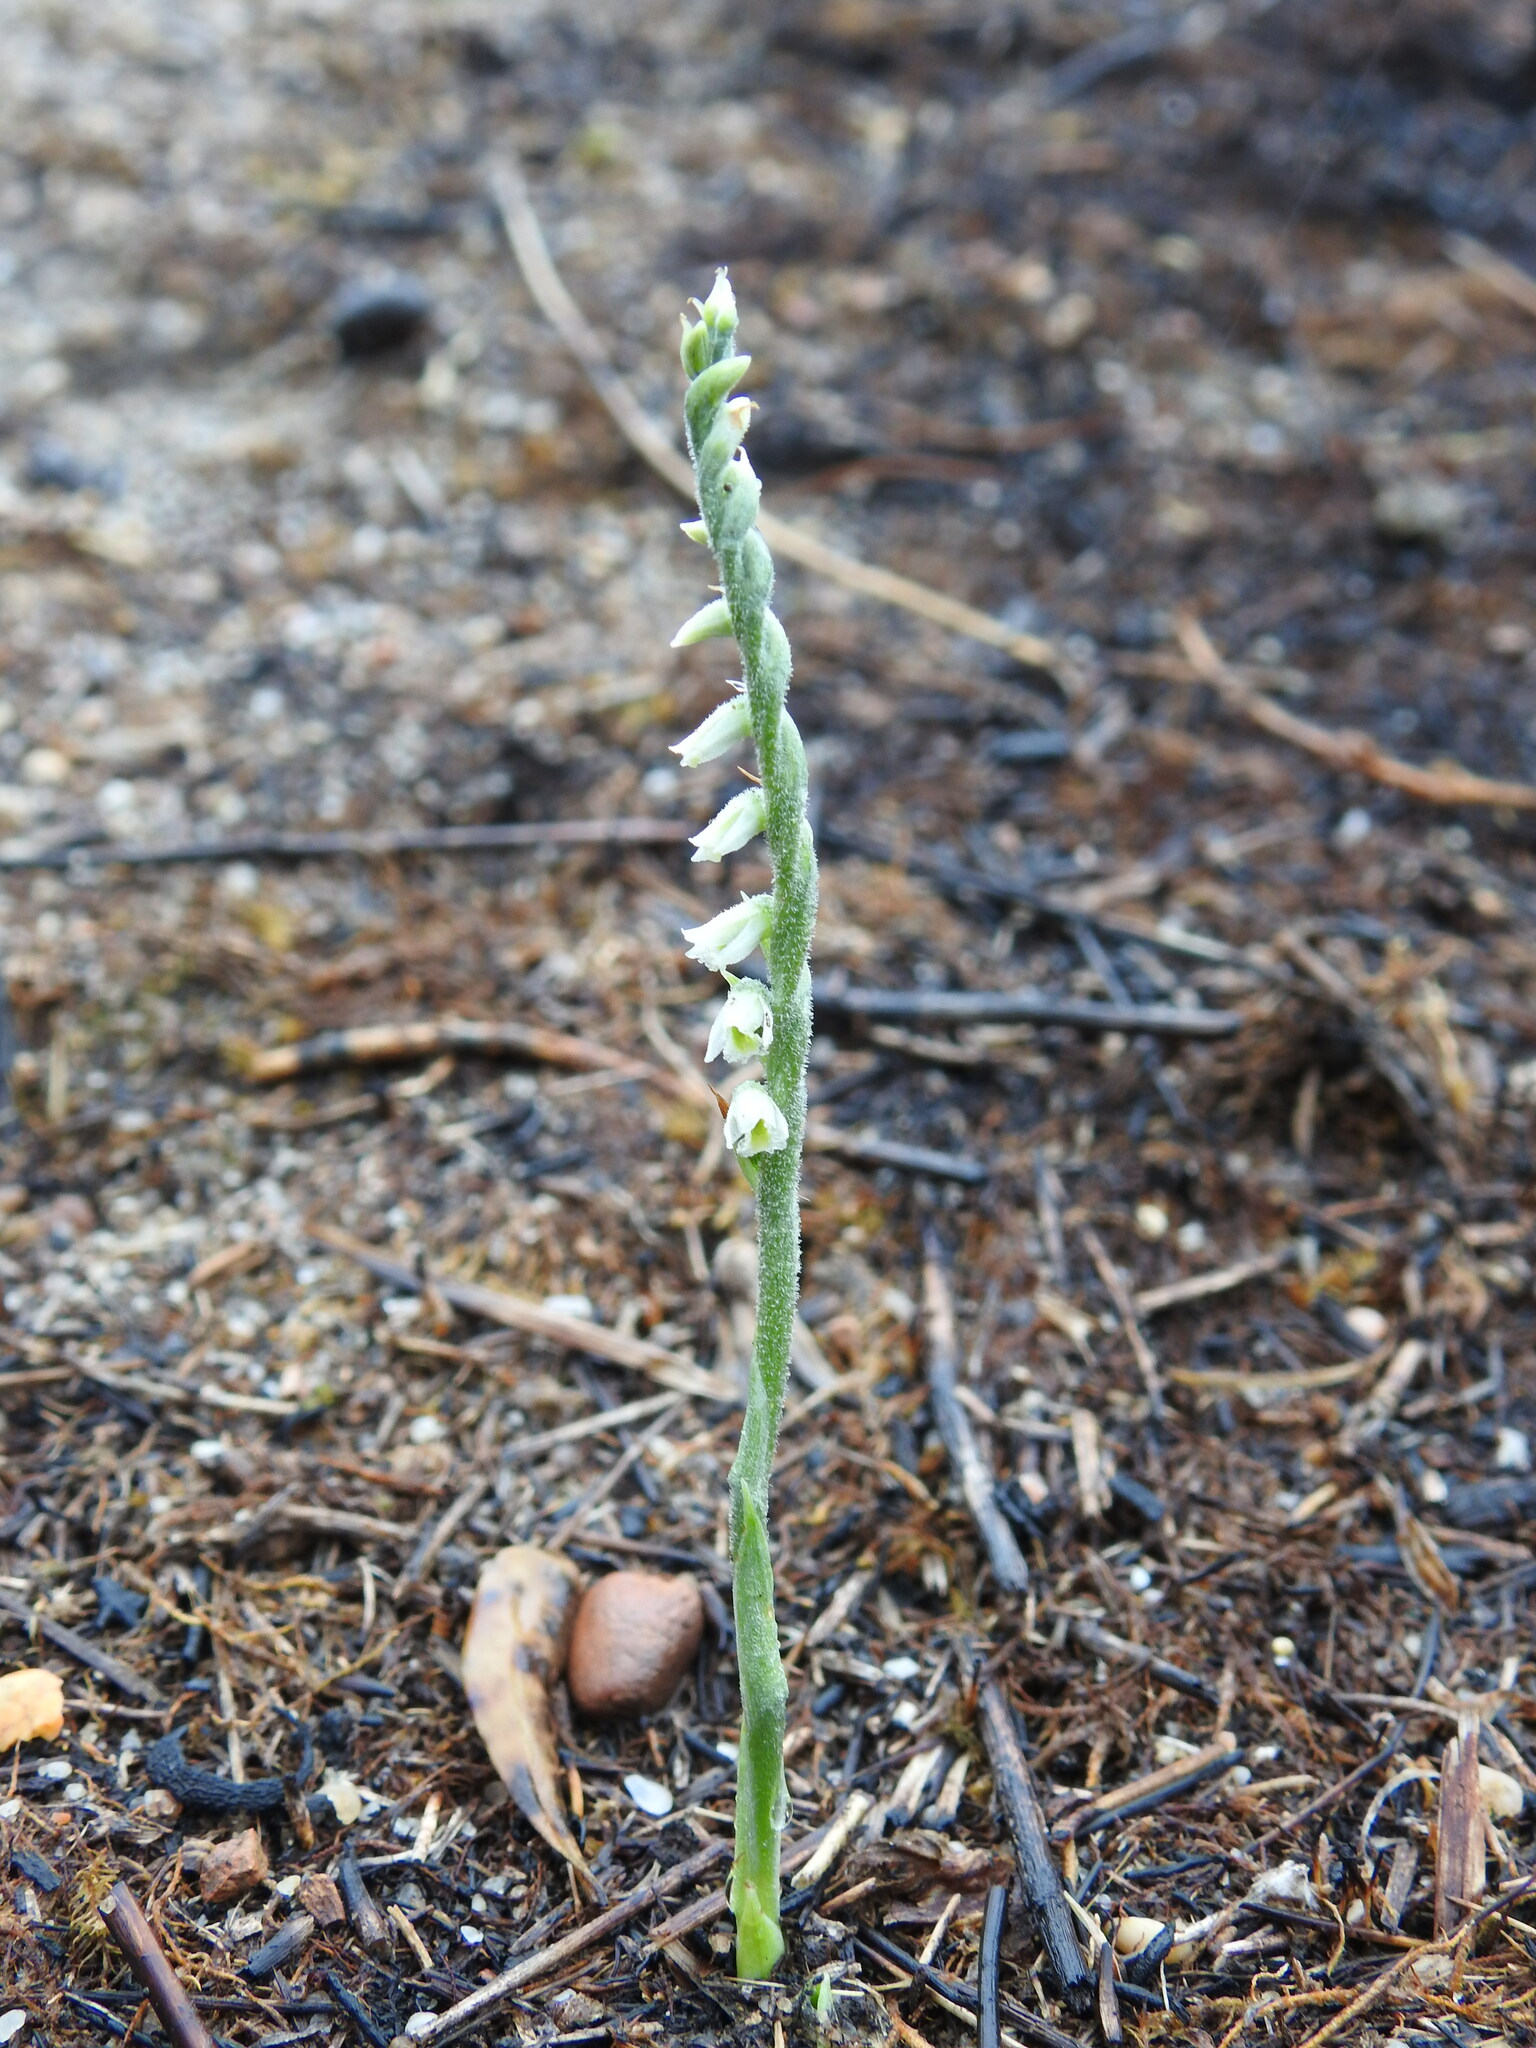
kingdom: Plantae
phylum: Tracheophyta
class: Liliopsida
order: Asparagales
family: Orchidaceae
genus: Spiranthes
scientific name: Spiranthes spiralis
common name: Autumn lady's-tresses
